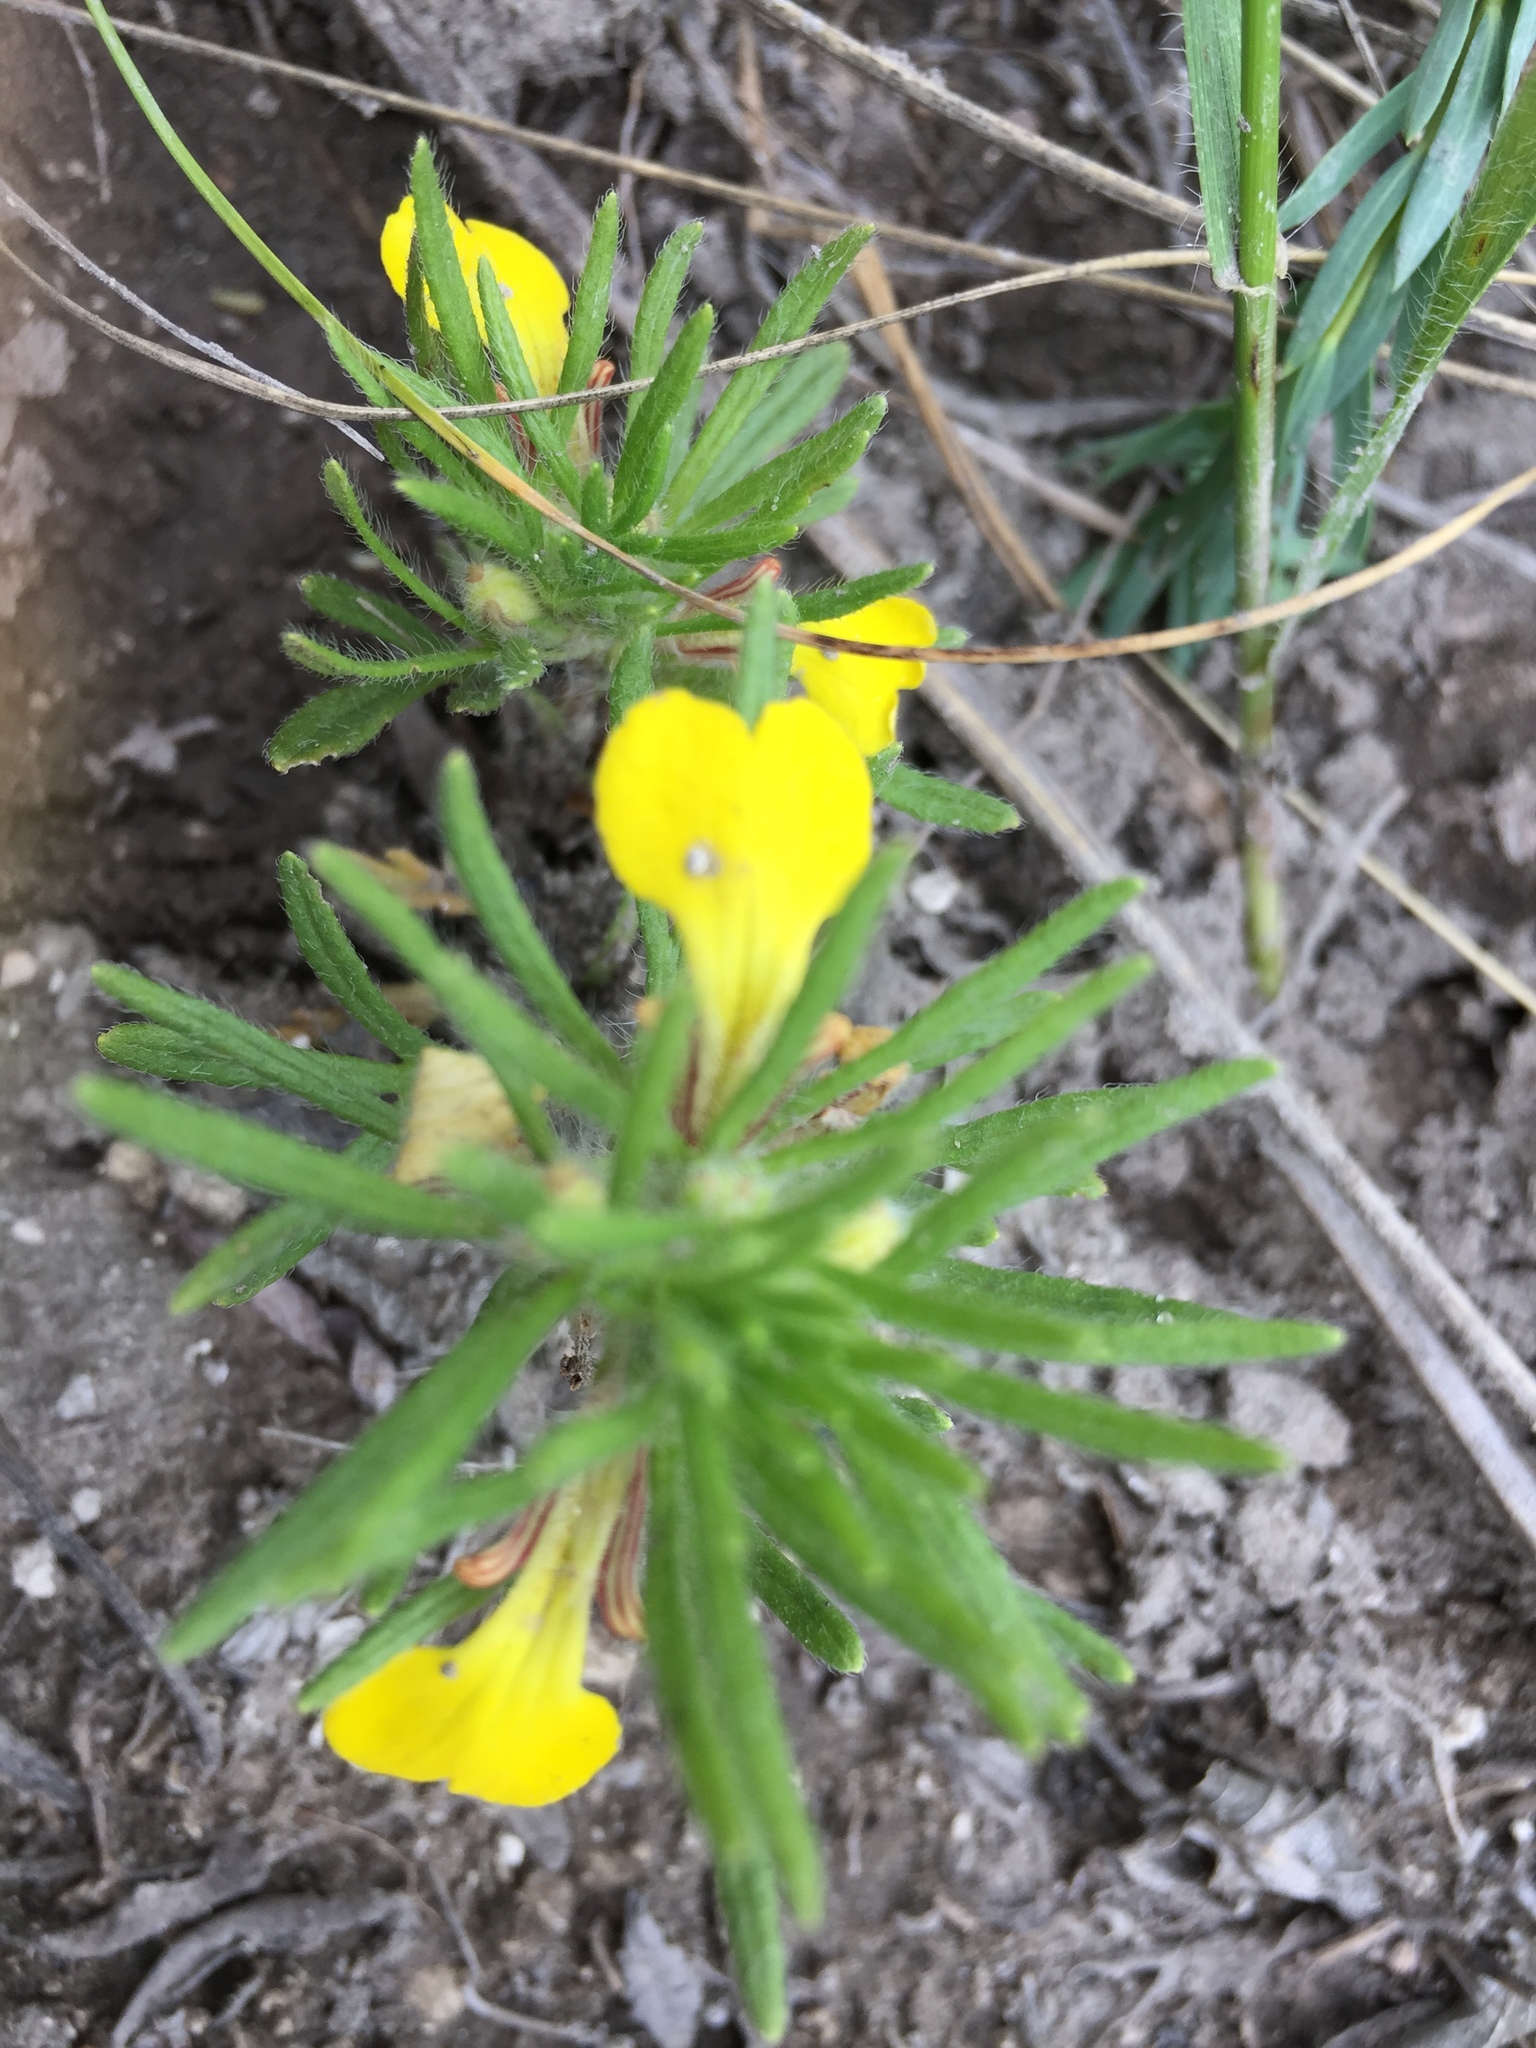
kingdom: Plantae
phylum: Tracheophyta
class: Magnoliopsida
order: Lamiales
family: Lamiaceae
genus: Ajuga
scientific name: Ajuga chamaepitys
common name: Ground-pine
